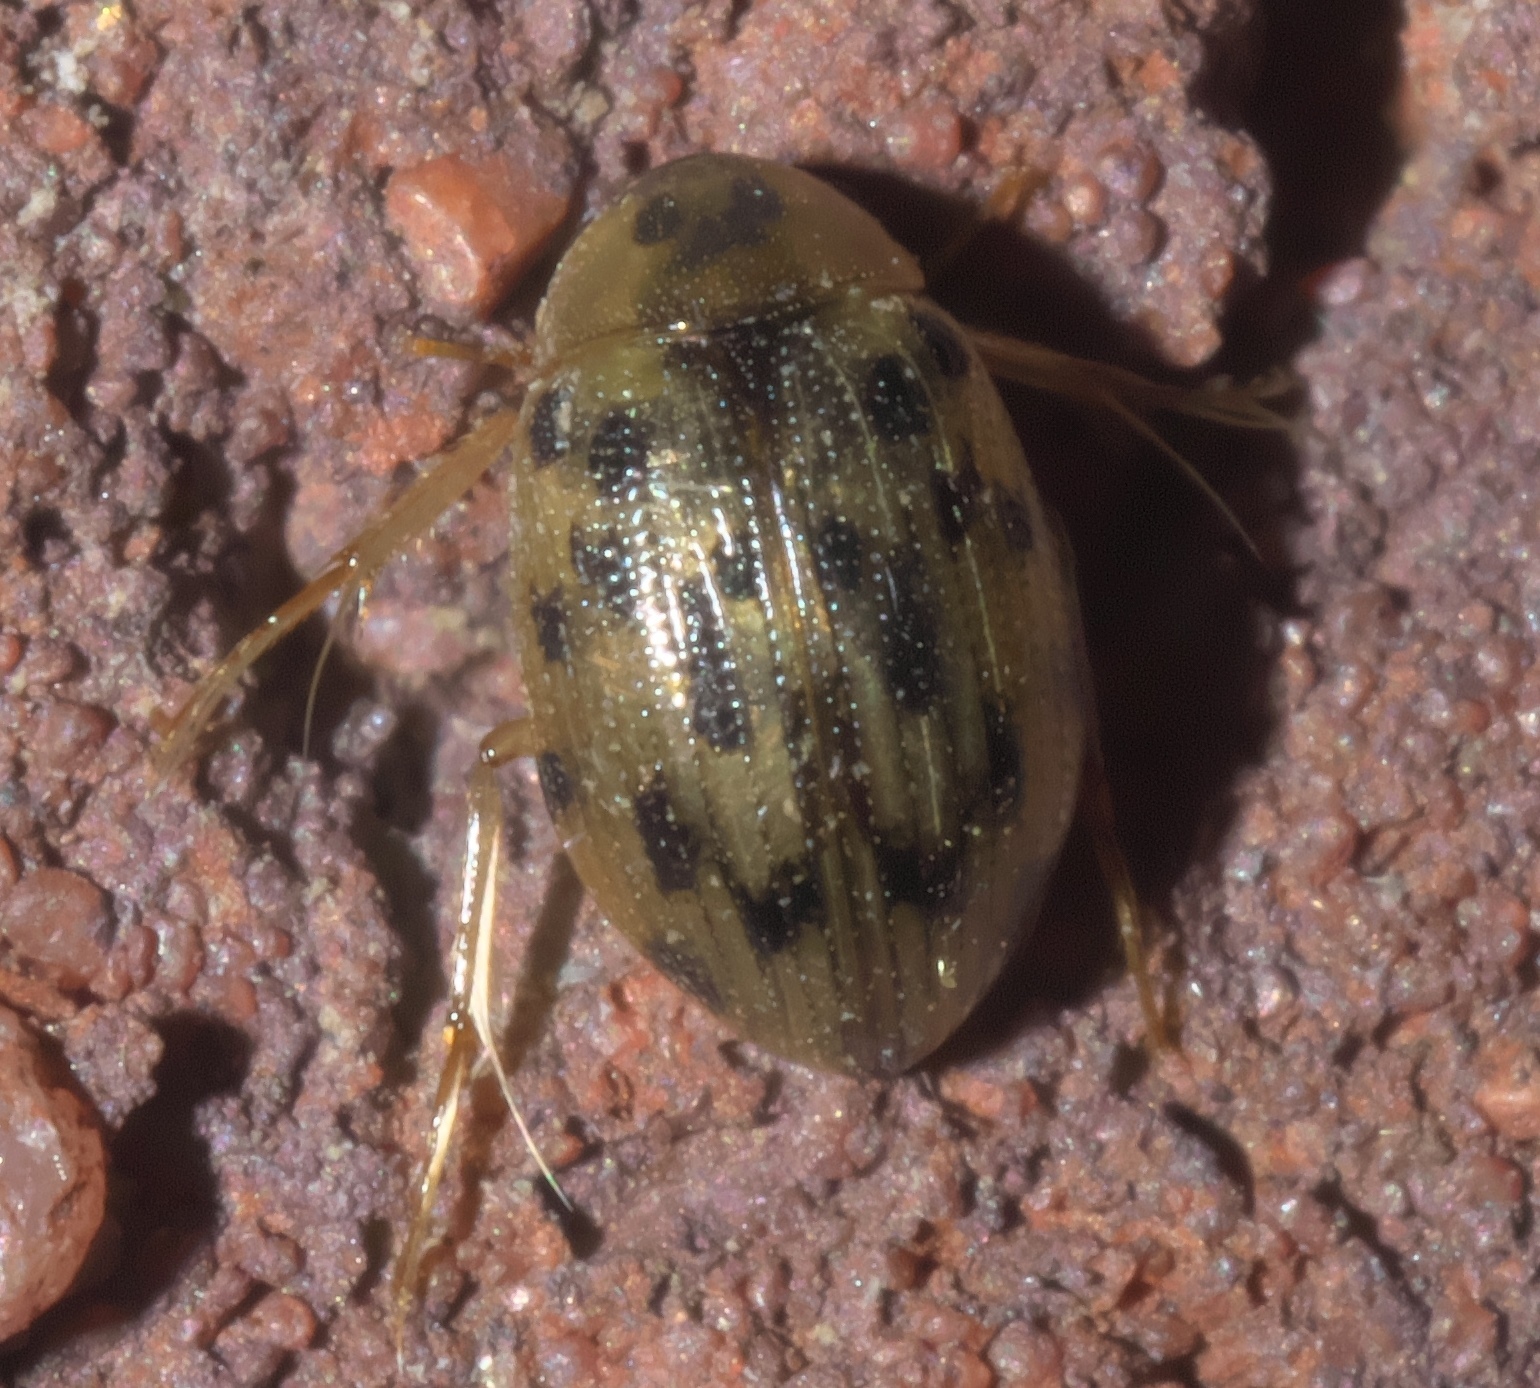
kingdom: Animalia
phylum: Arthropoda
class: Insecta
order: Coleoptera
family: Hydrophilidae
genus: Berosus
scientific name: Berosus pantherinus
